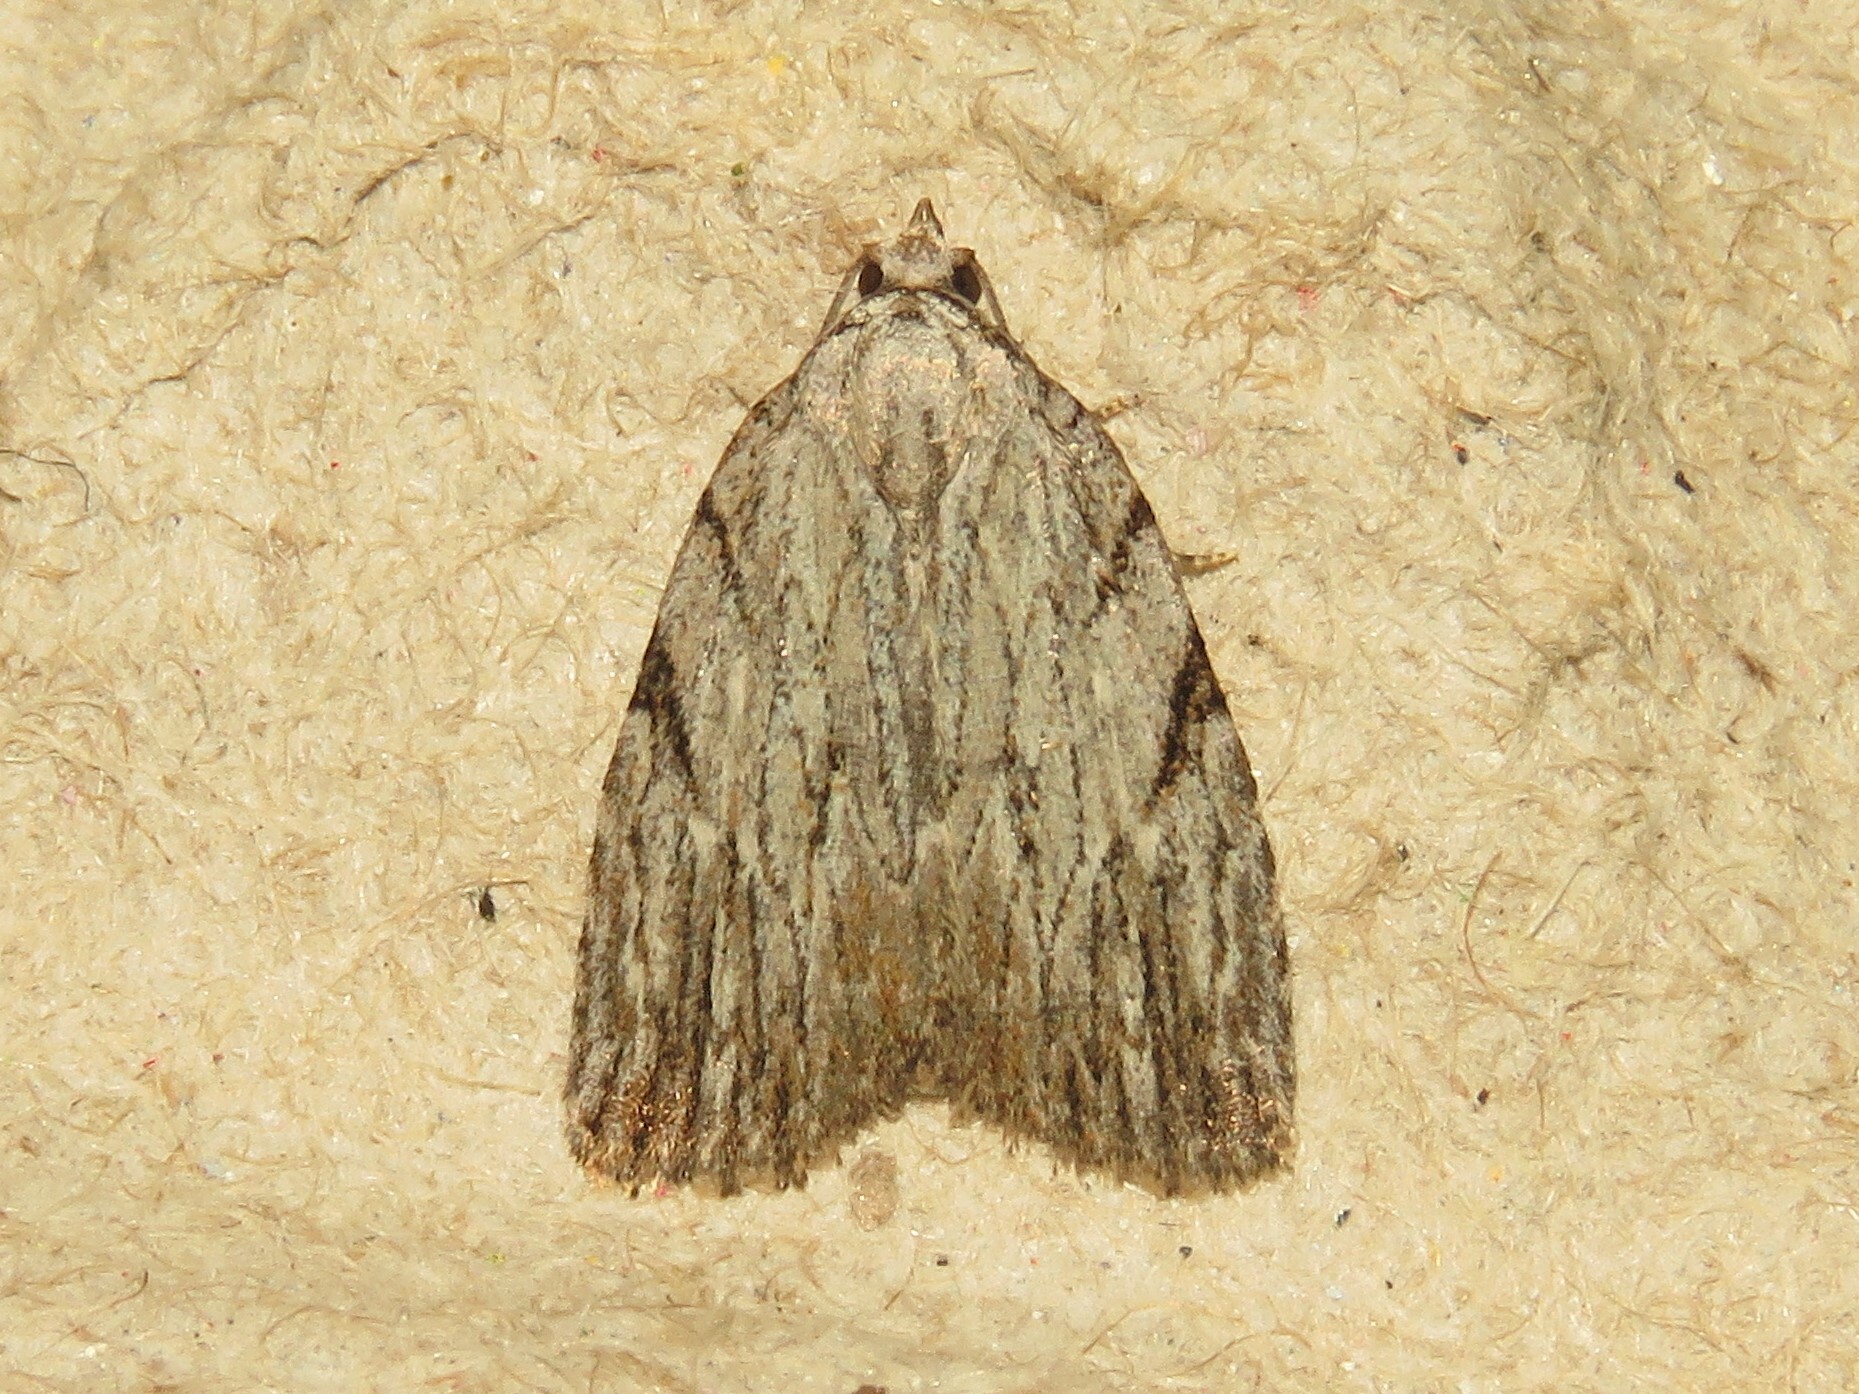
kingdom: Animalia
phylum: Arthropoda
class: Insecta
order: Lepidoptera
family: Noctuidae
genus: Balsa
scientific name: Balsa tristrigella
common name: Three-lined balsa moth
